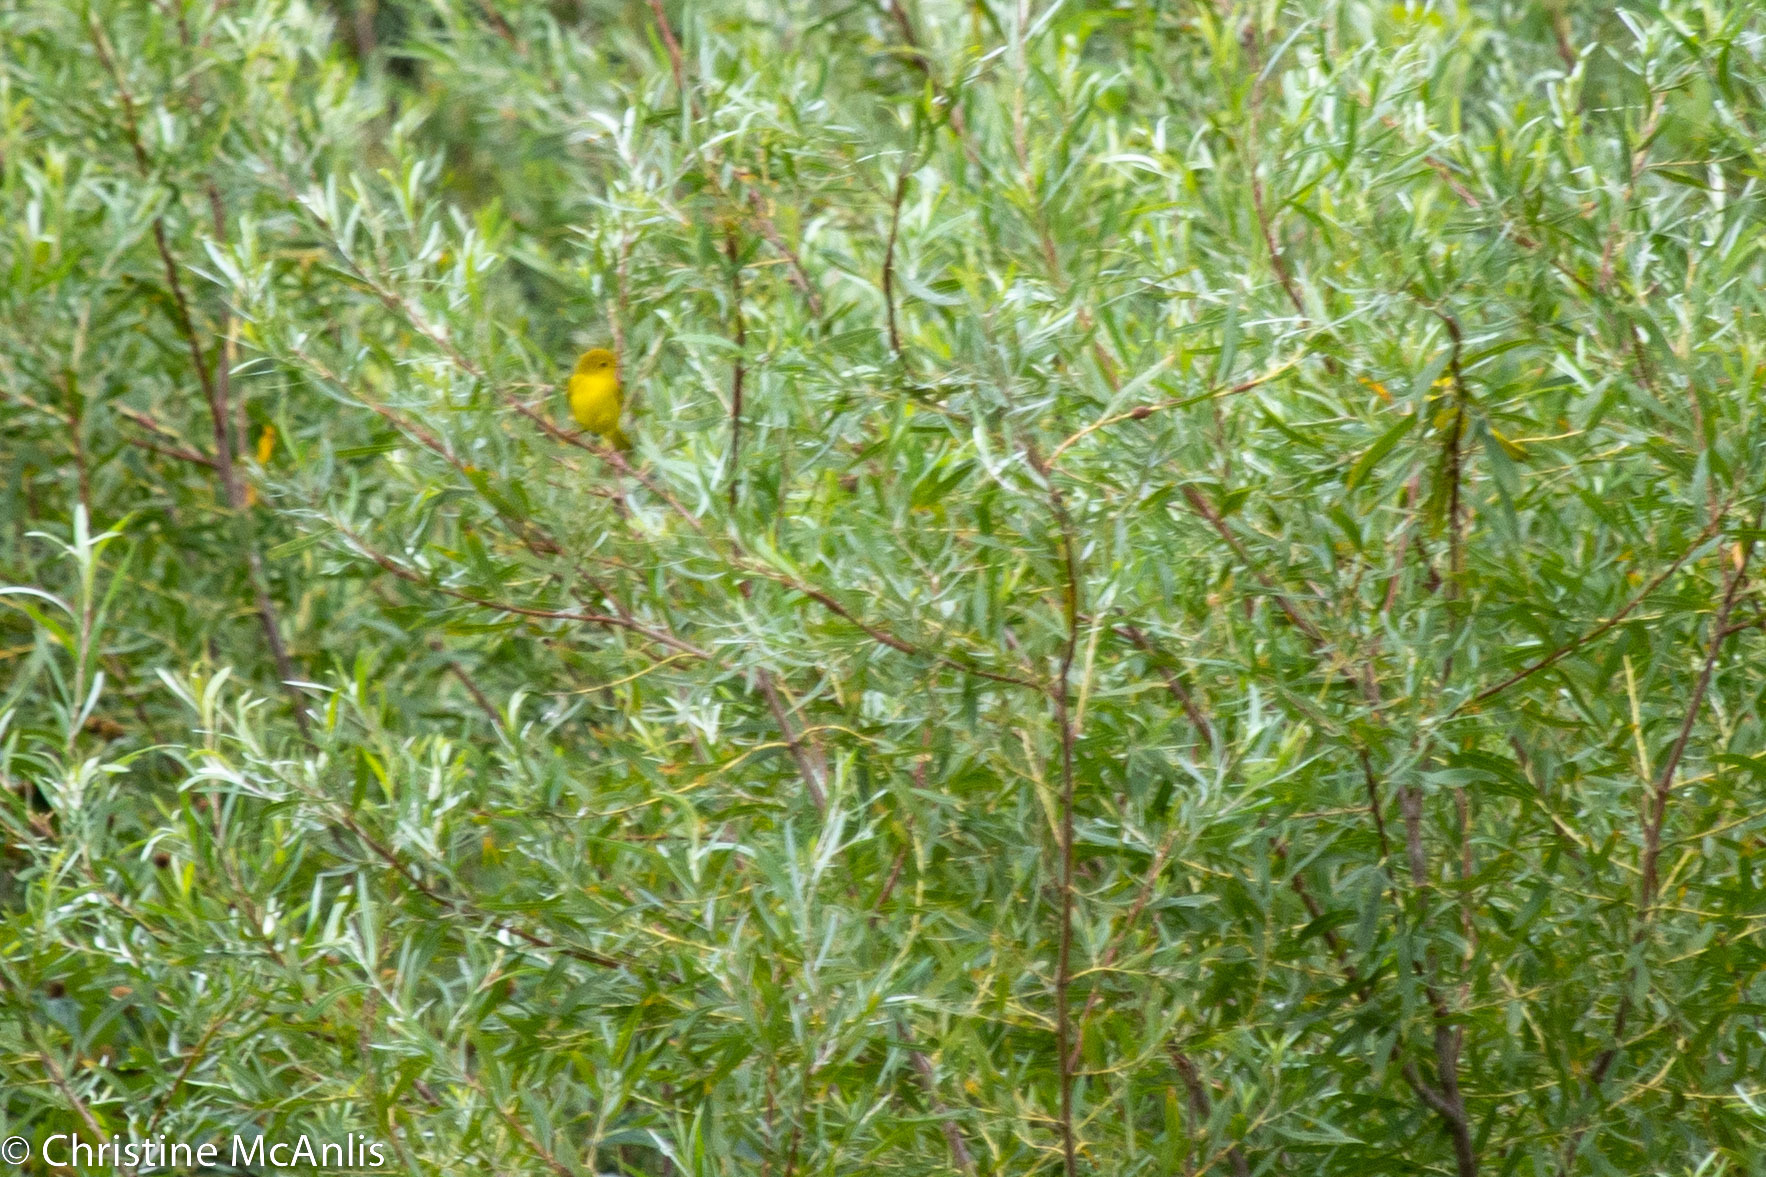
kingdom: Animalia
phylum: Chordata
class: Aves
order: Passeriformes
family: Parulidae
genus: Setophaga
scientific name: Setophaga petechia
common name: Yellow warbler
